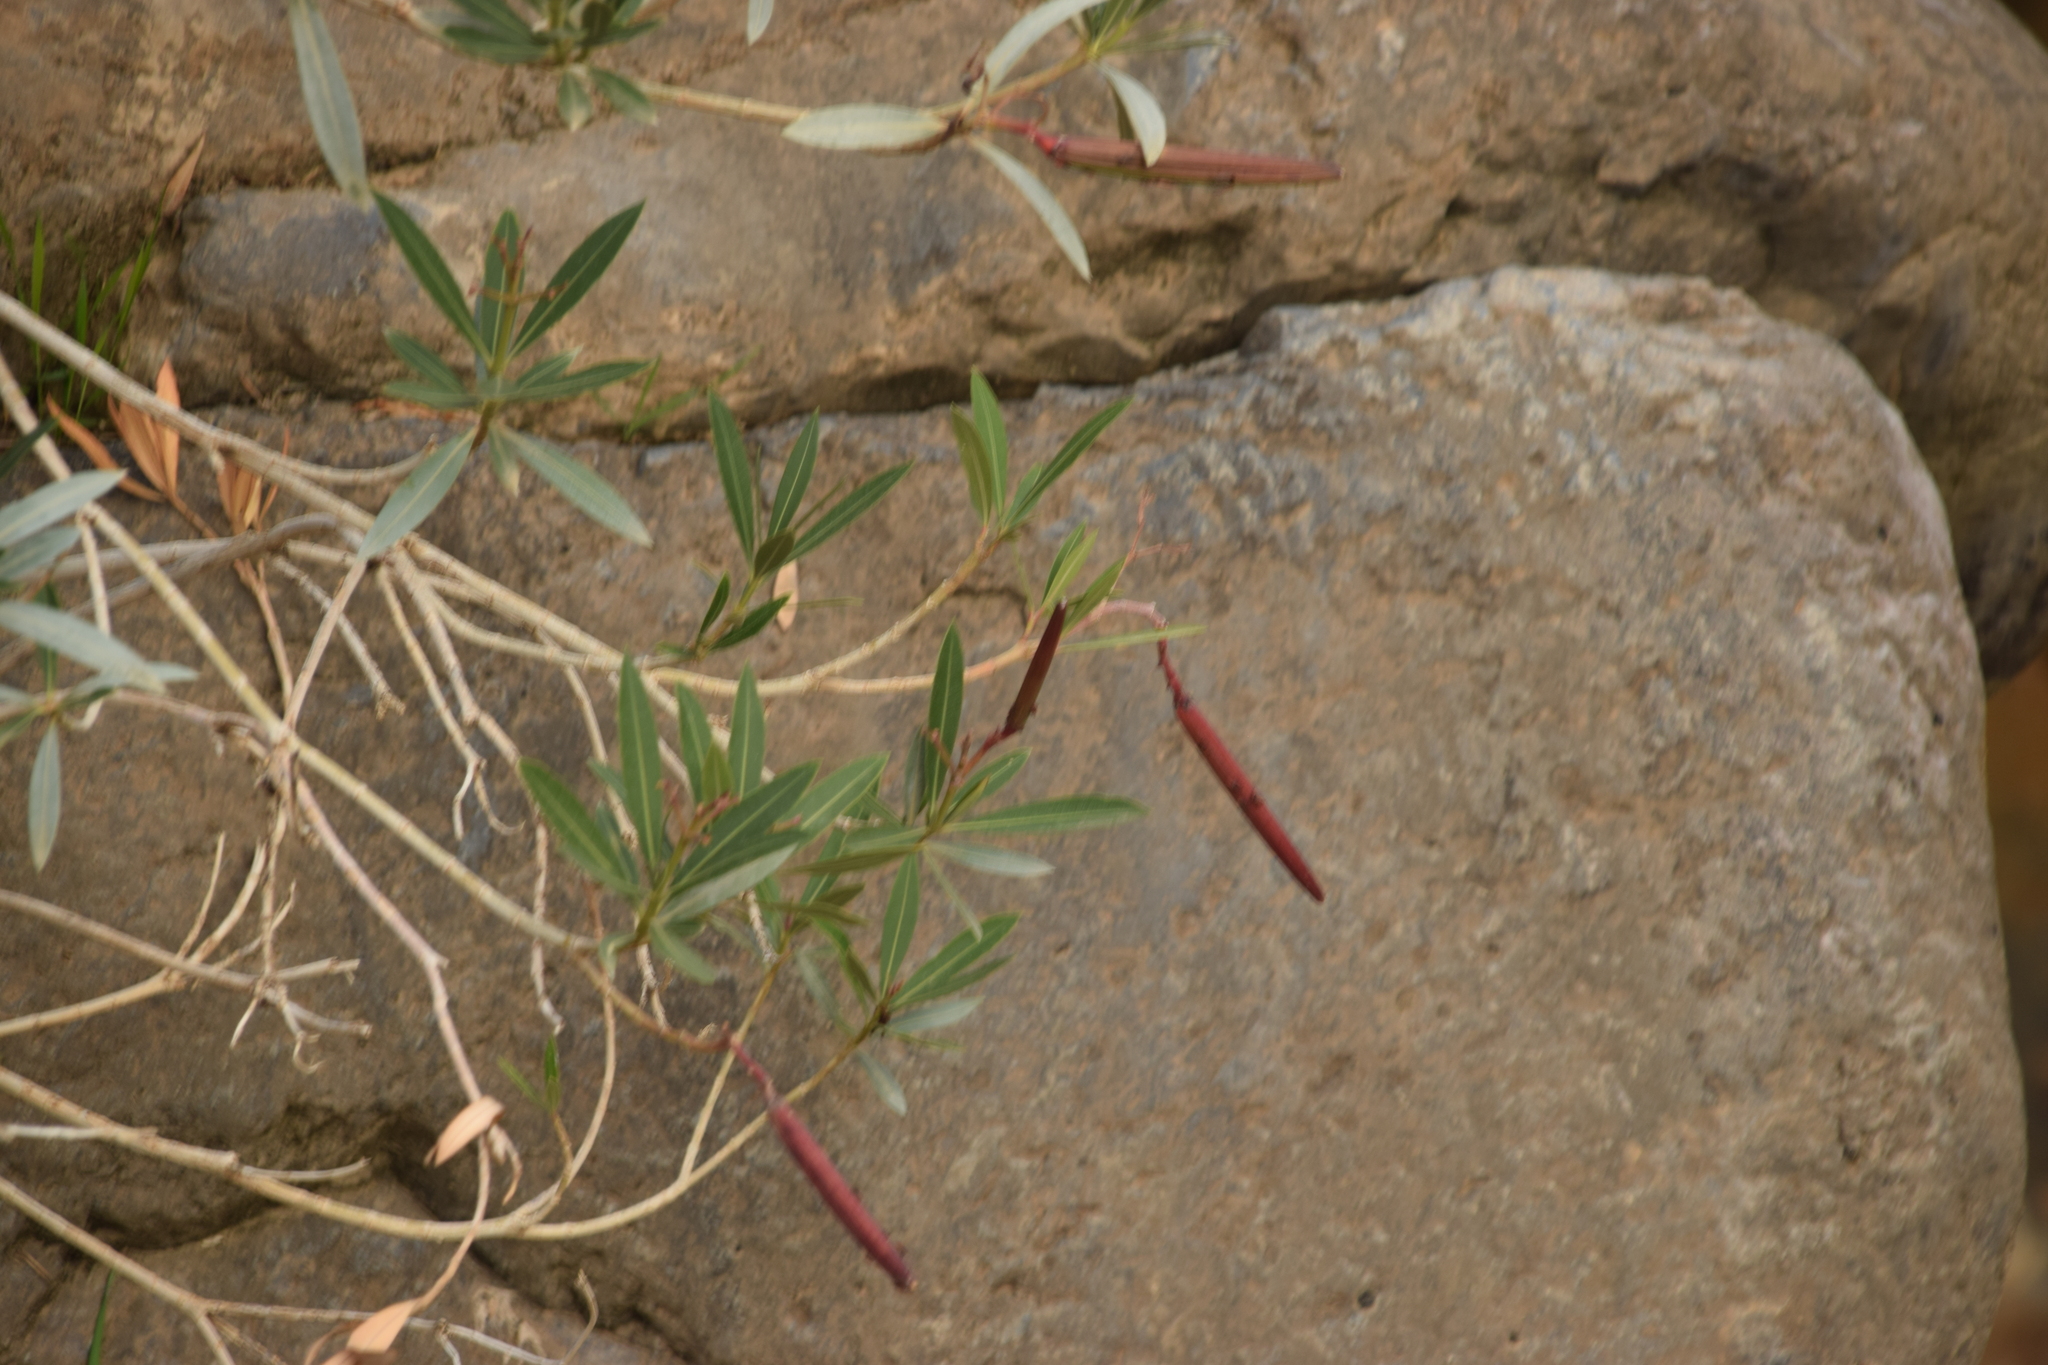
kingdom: Plantae
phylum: Tracheophyta
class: Magnoliopsida
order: Gentianales
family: Apocynaceae
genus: Nerium
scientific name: Nerium oleander
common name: Oleander
